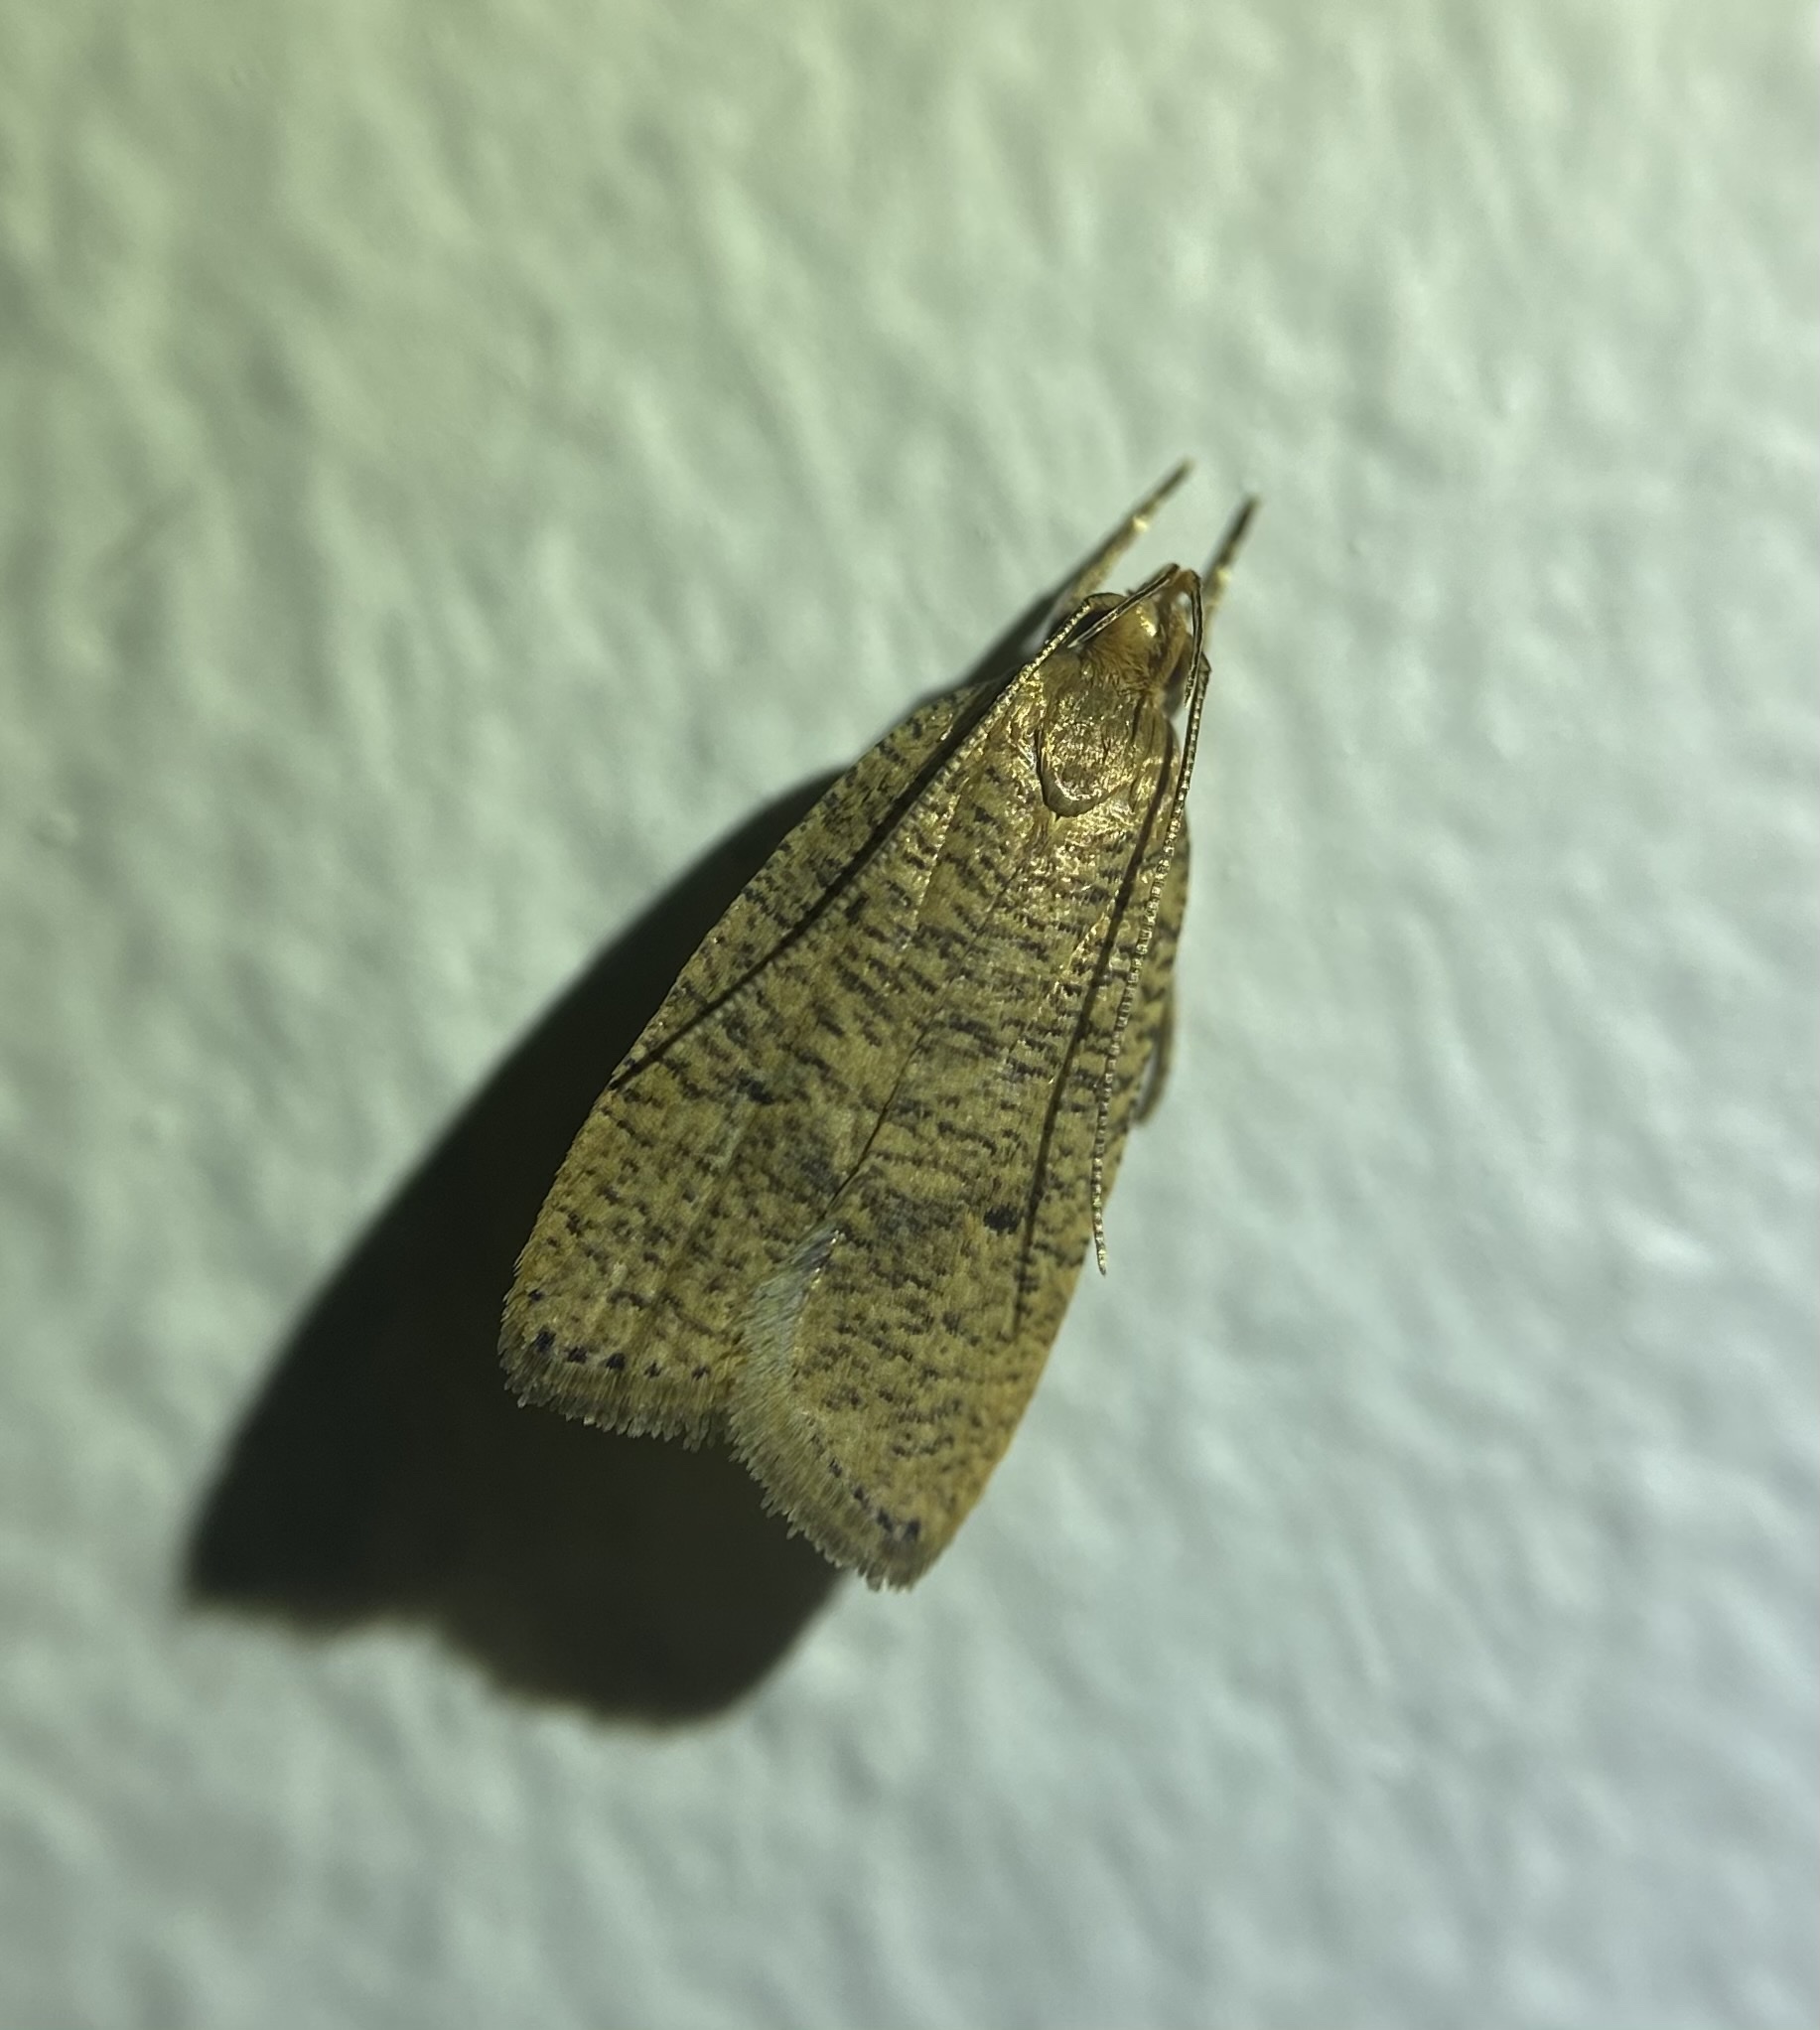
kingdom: Animalia
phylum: Arthropoda
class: Insecta
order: Lepidoptera
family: Depressariidae
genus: Psilocorsis
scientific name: Psilocorsis reflexella
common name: Dotted leaftier moth
